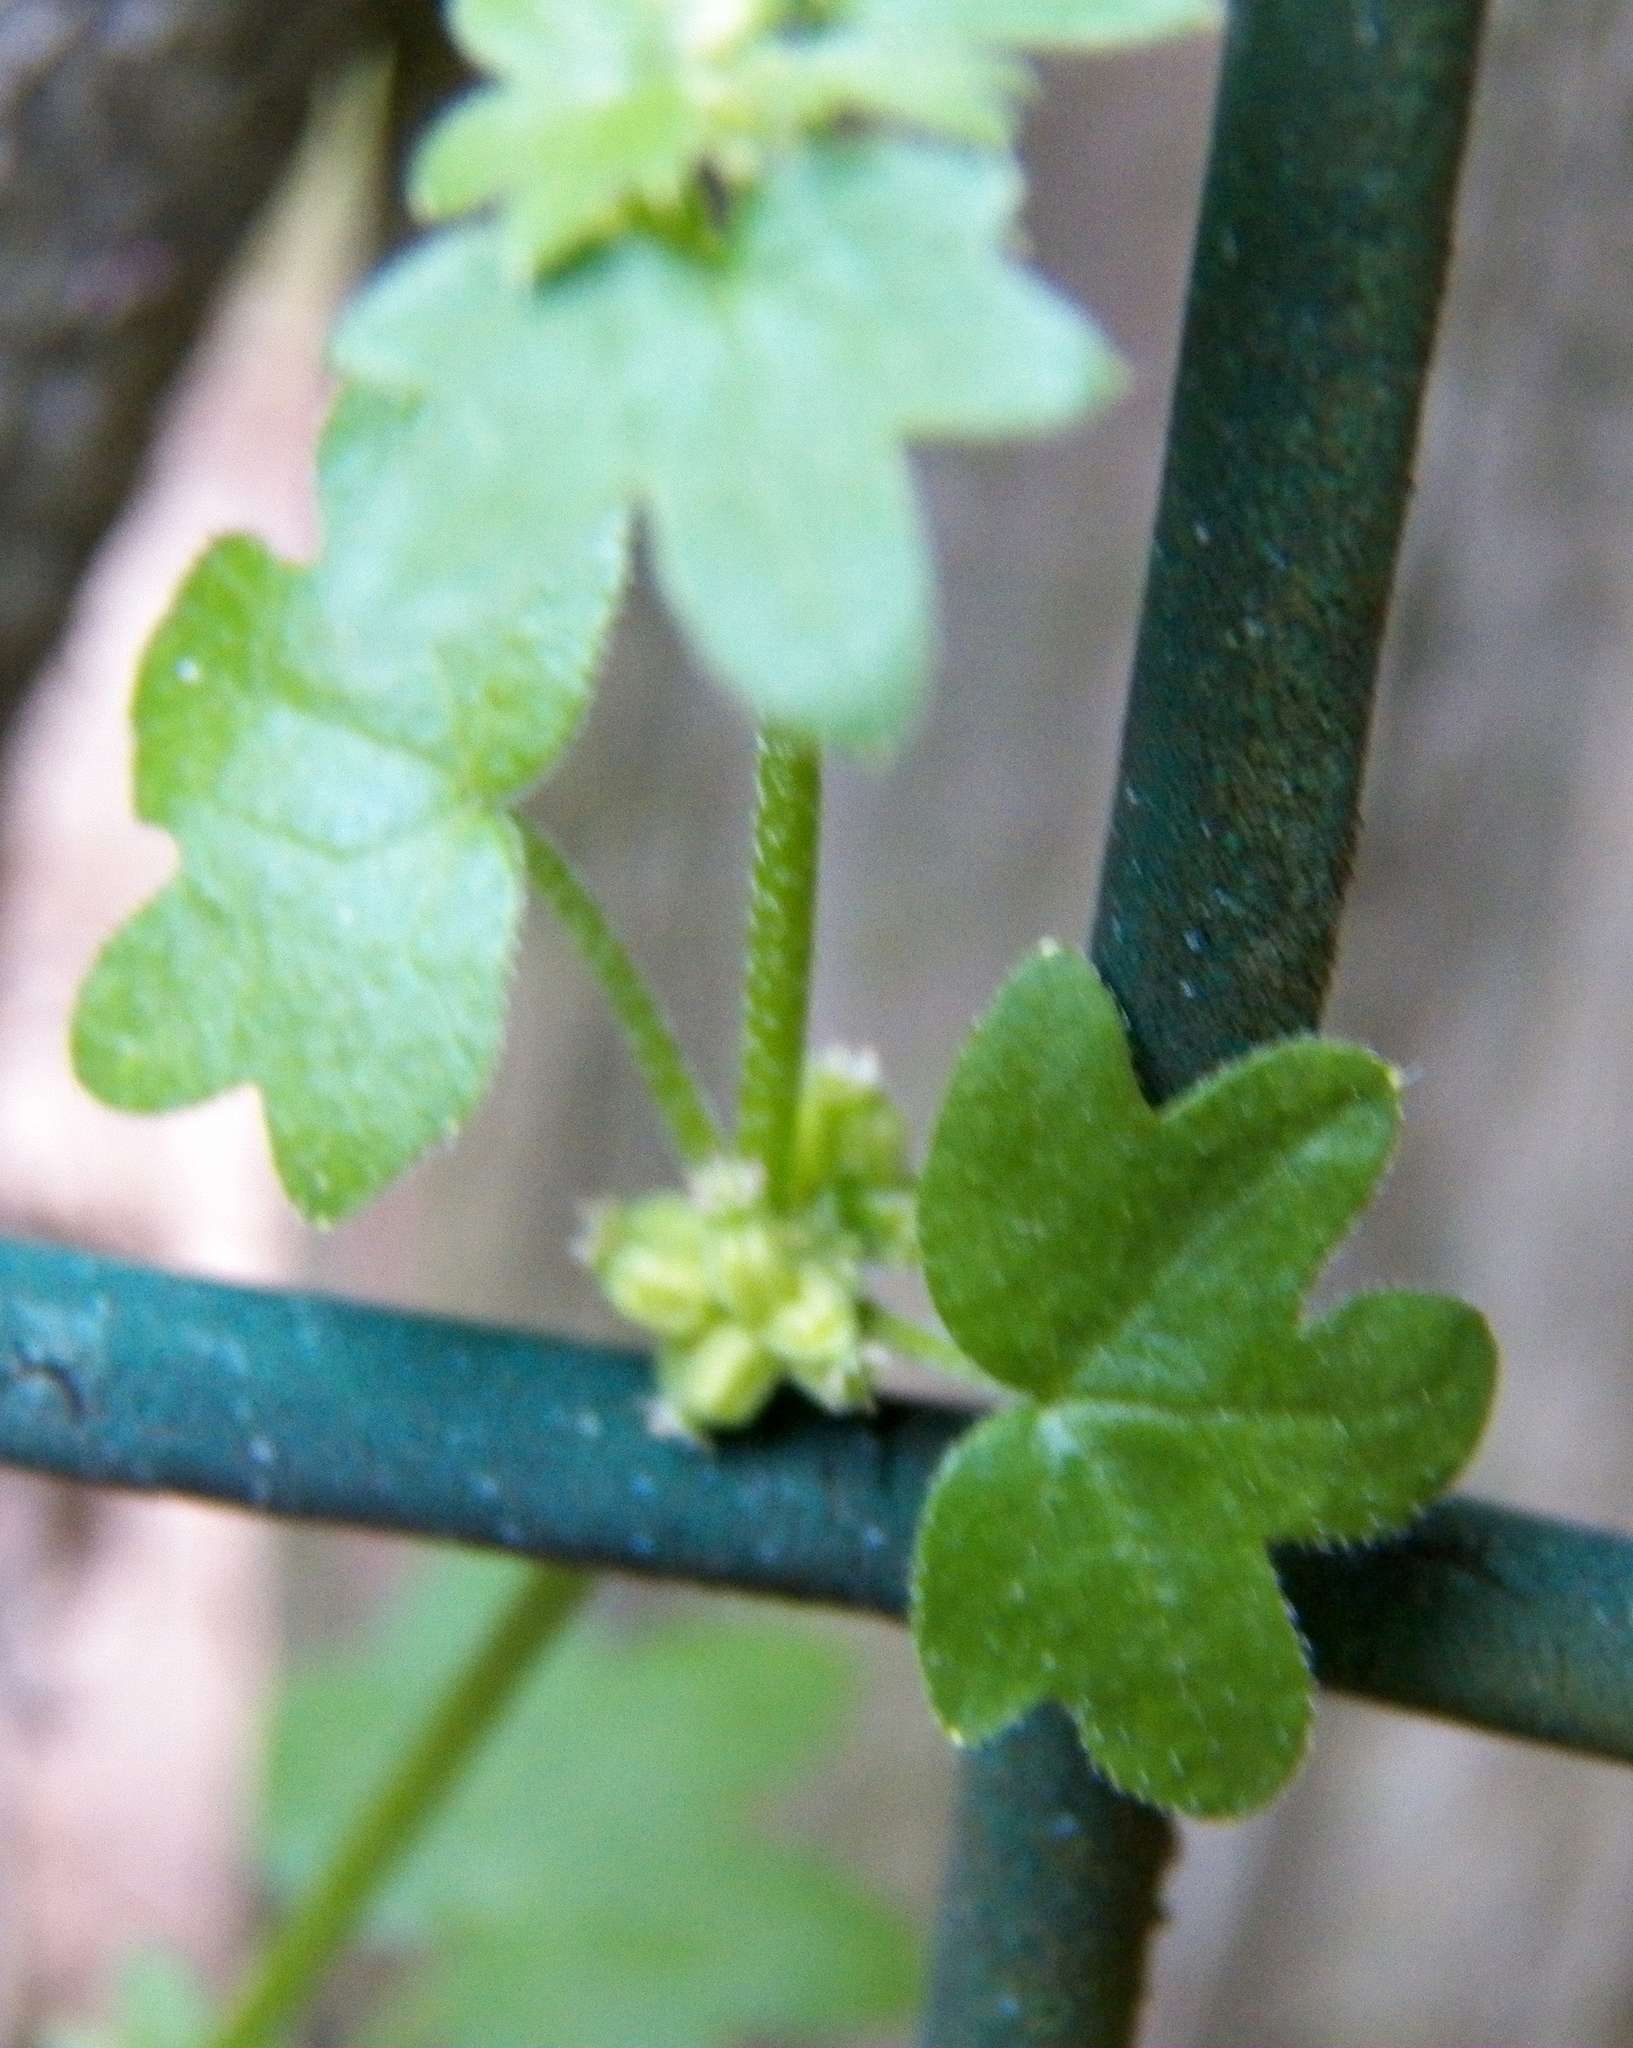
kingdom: Plantae
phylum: Tracheophyta
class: Magnoliopsida
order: Apiales
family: Apiaceae
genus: Bowlesia
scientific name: Bowlesia incana
